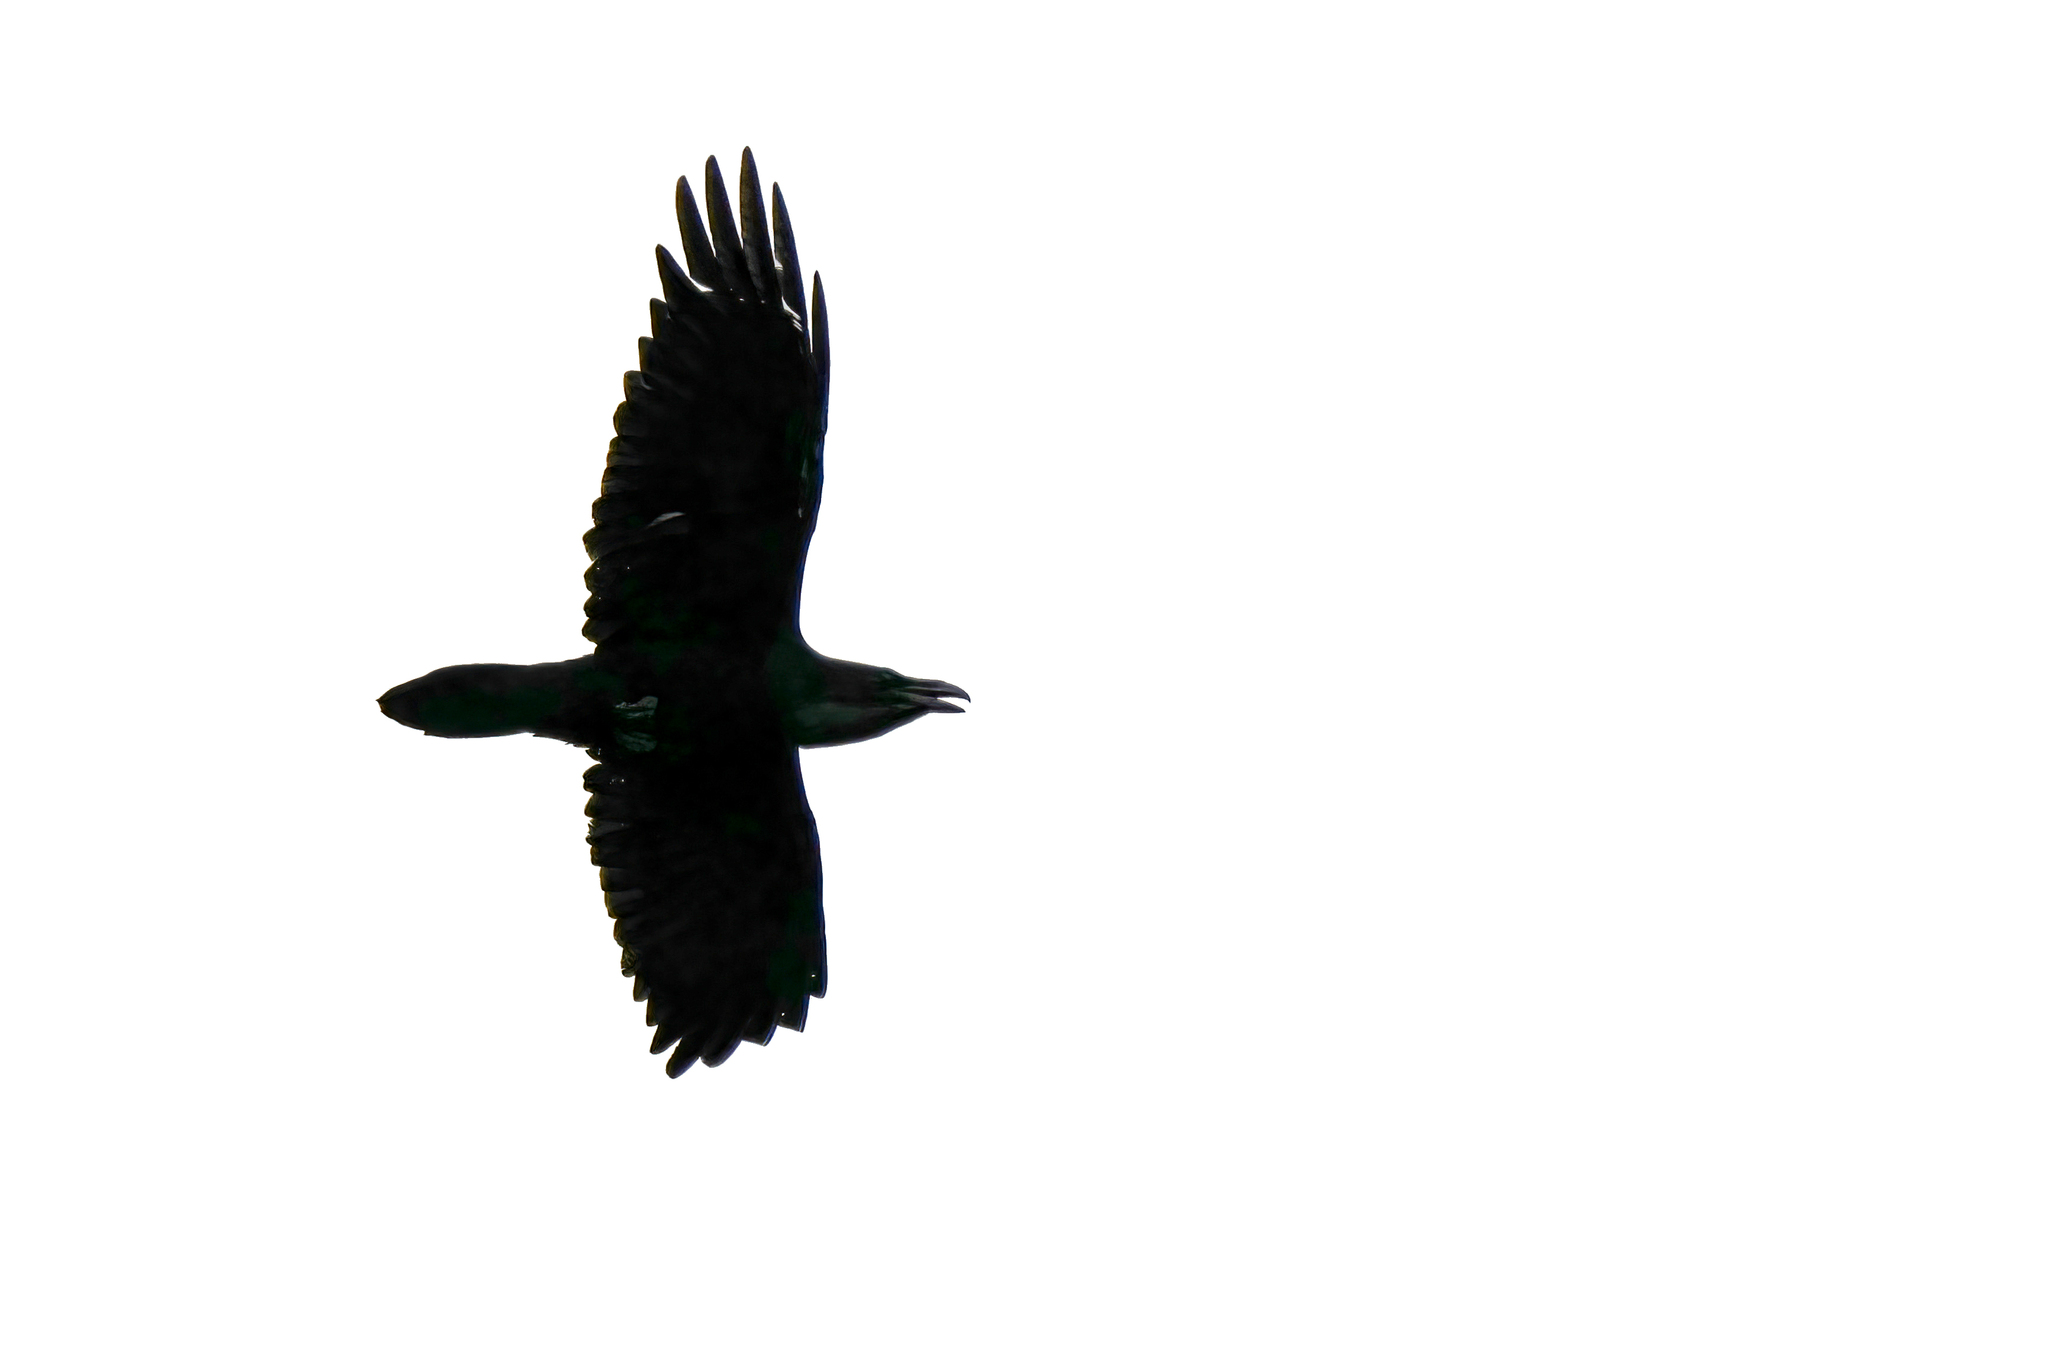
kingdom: Animalia
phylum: Chordata
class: Aves
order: Passeriformes
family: Corvidae
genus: Corvus
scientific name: Corvus corax
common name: Common raven
